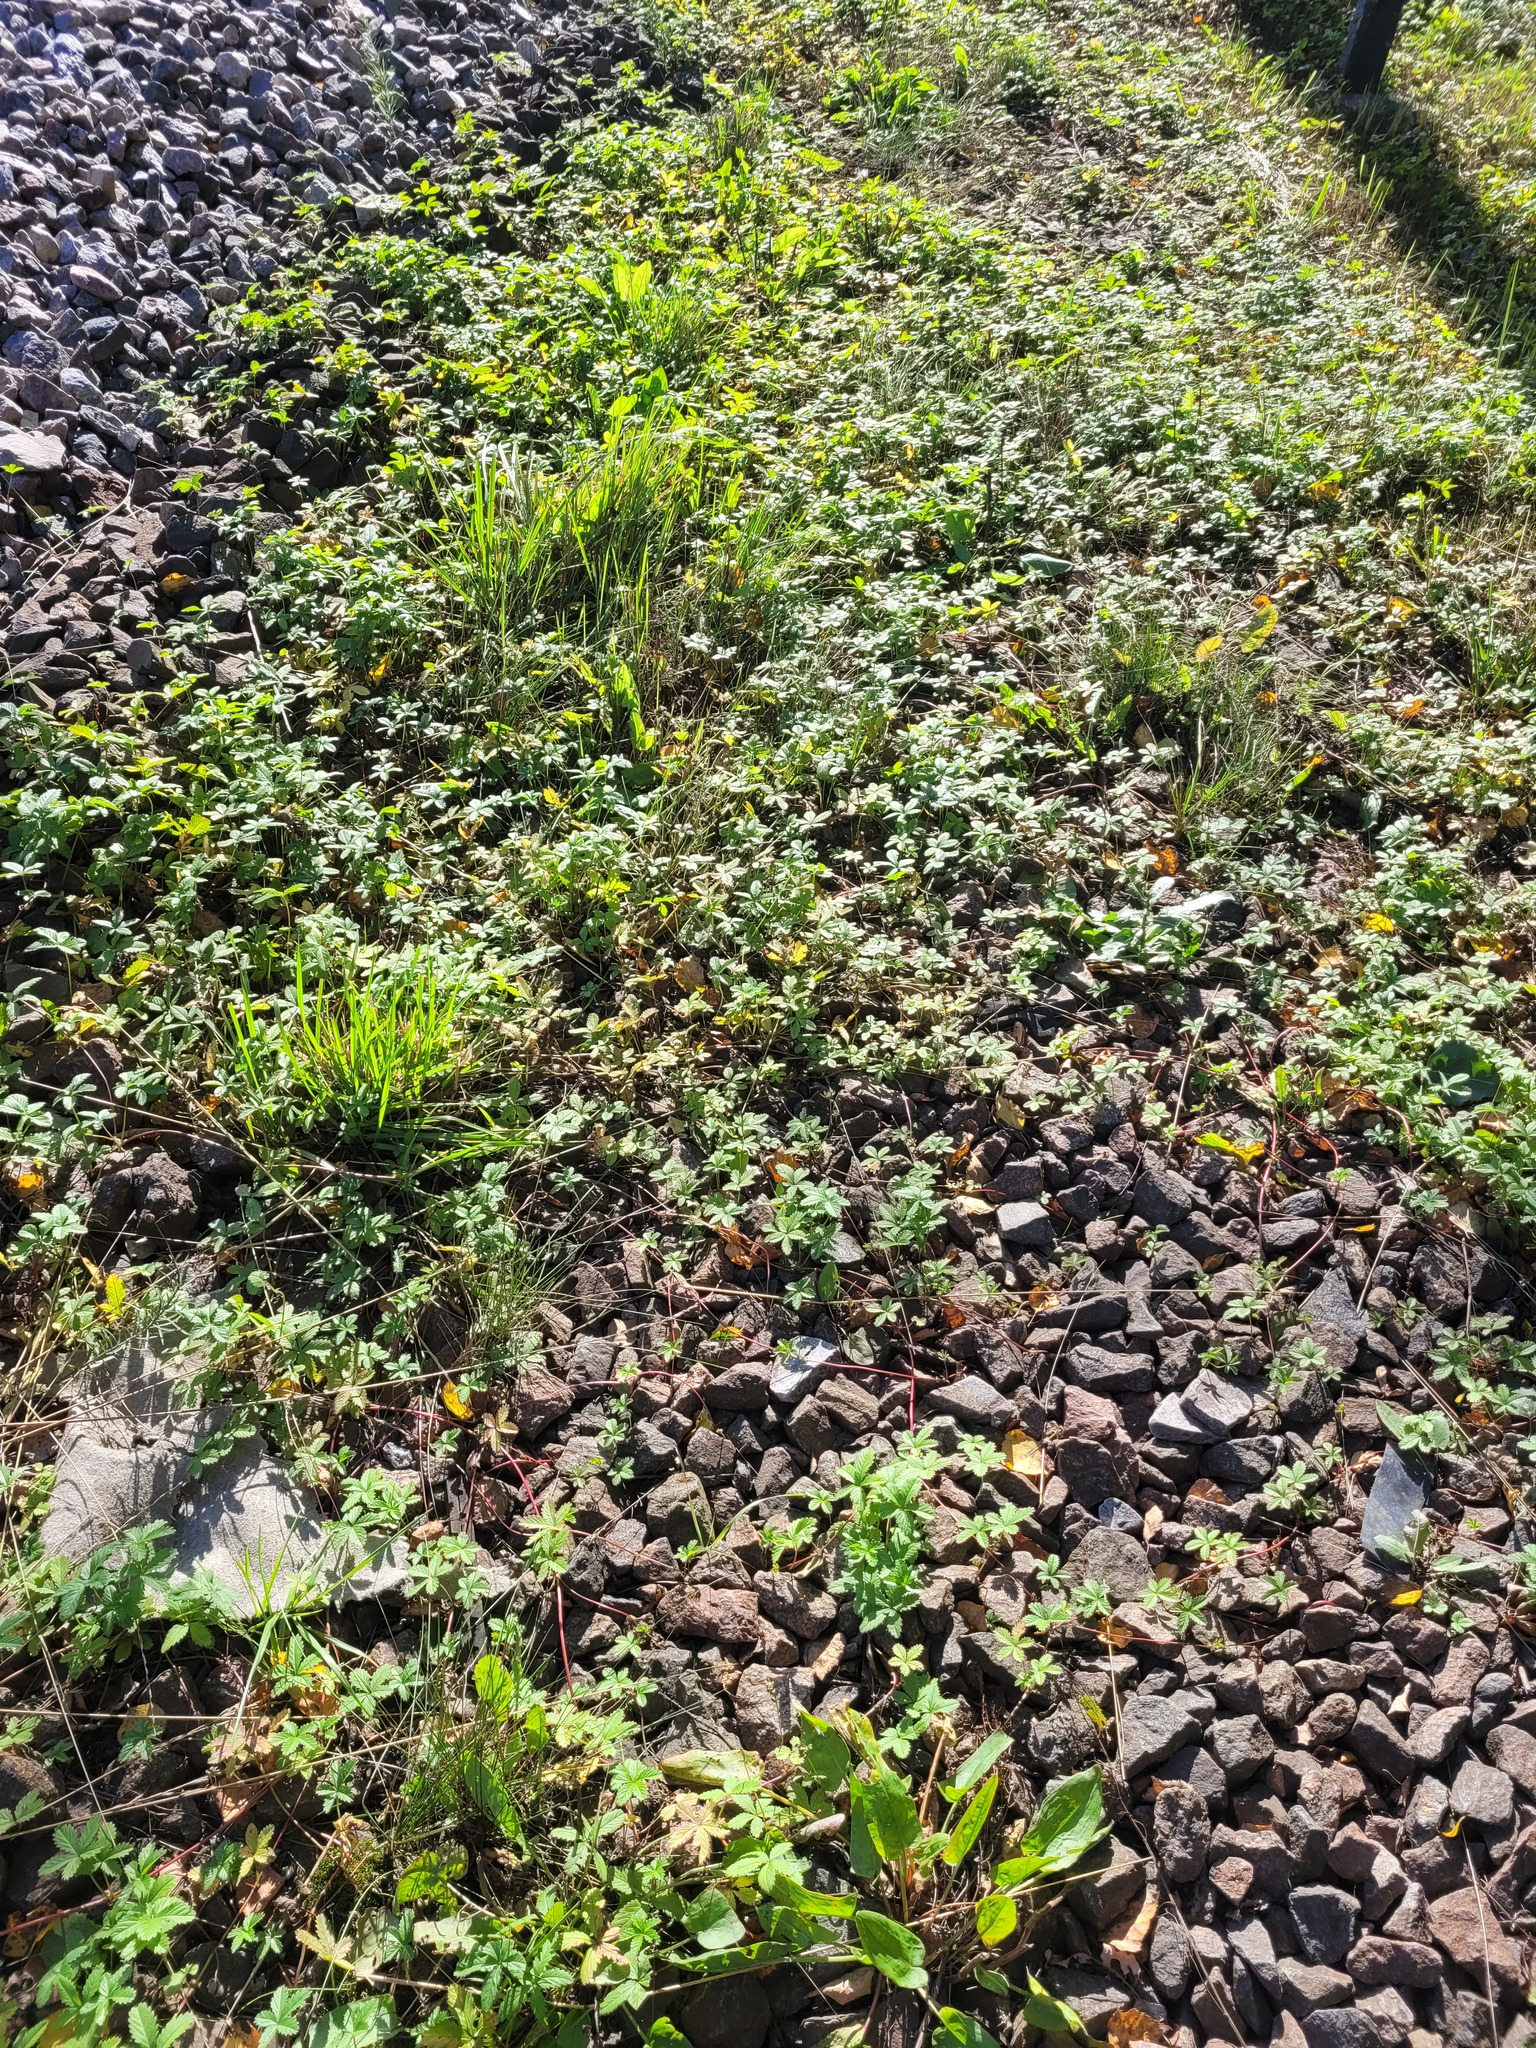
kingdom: Plantae
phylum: Tracheophyta
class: Magnoliopsida
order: Rosales
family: Rosaceae
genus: Potentilla
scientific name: Potentilla reptans
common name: Creeping cinquefoil
